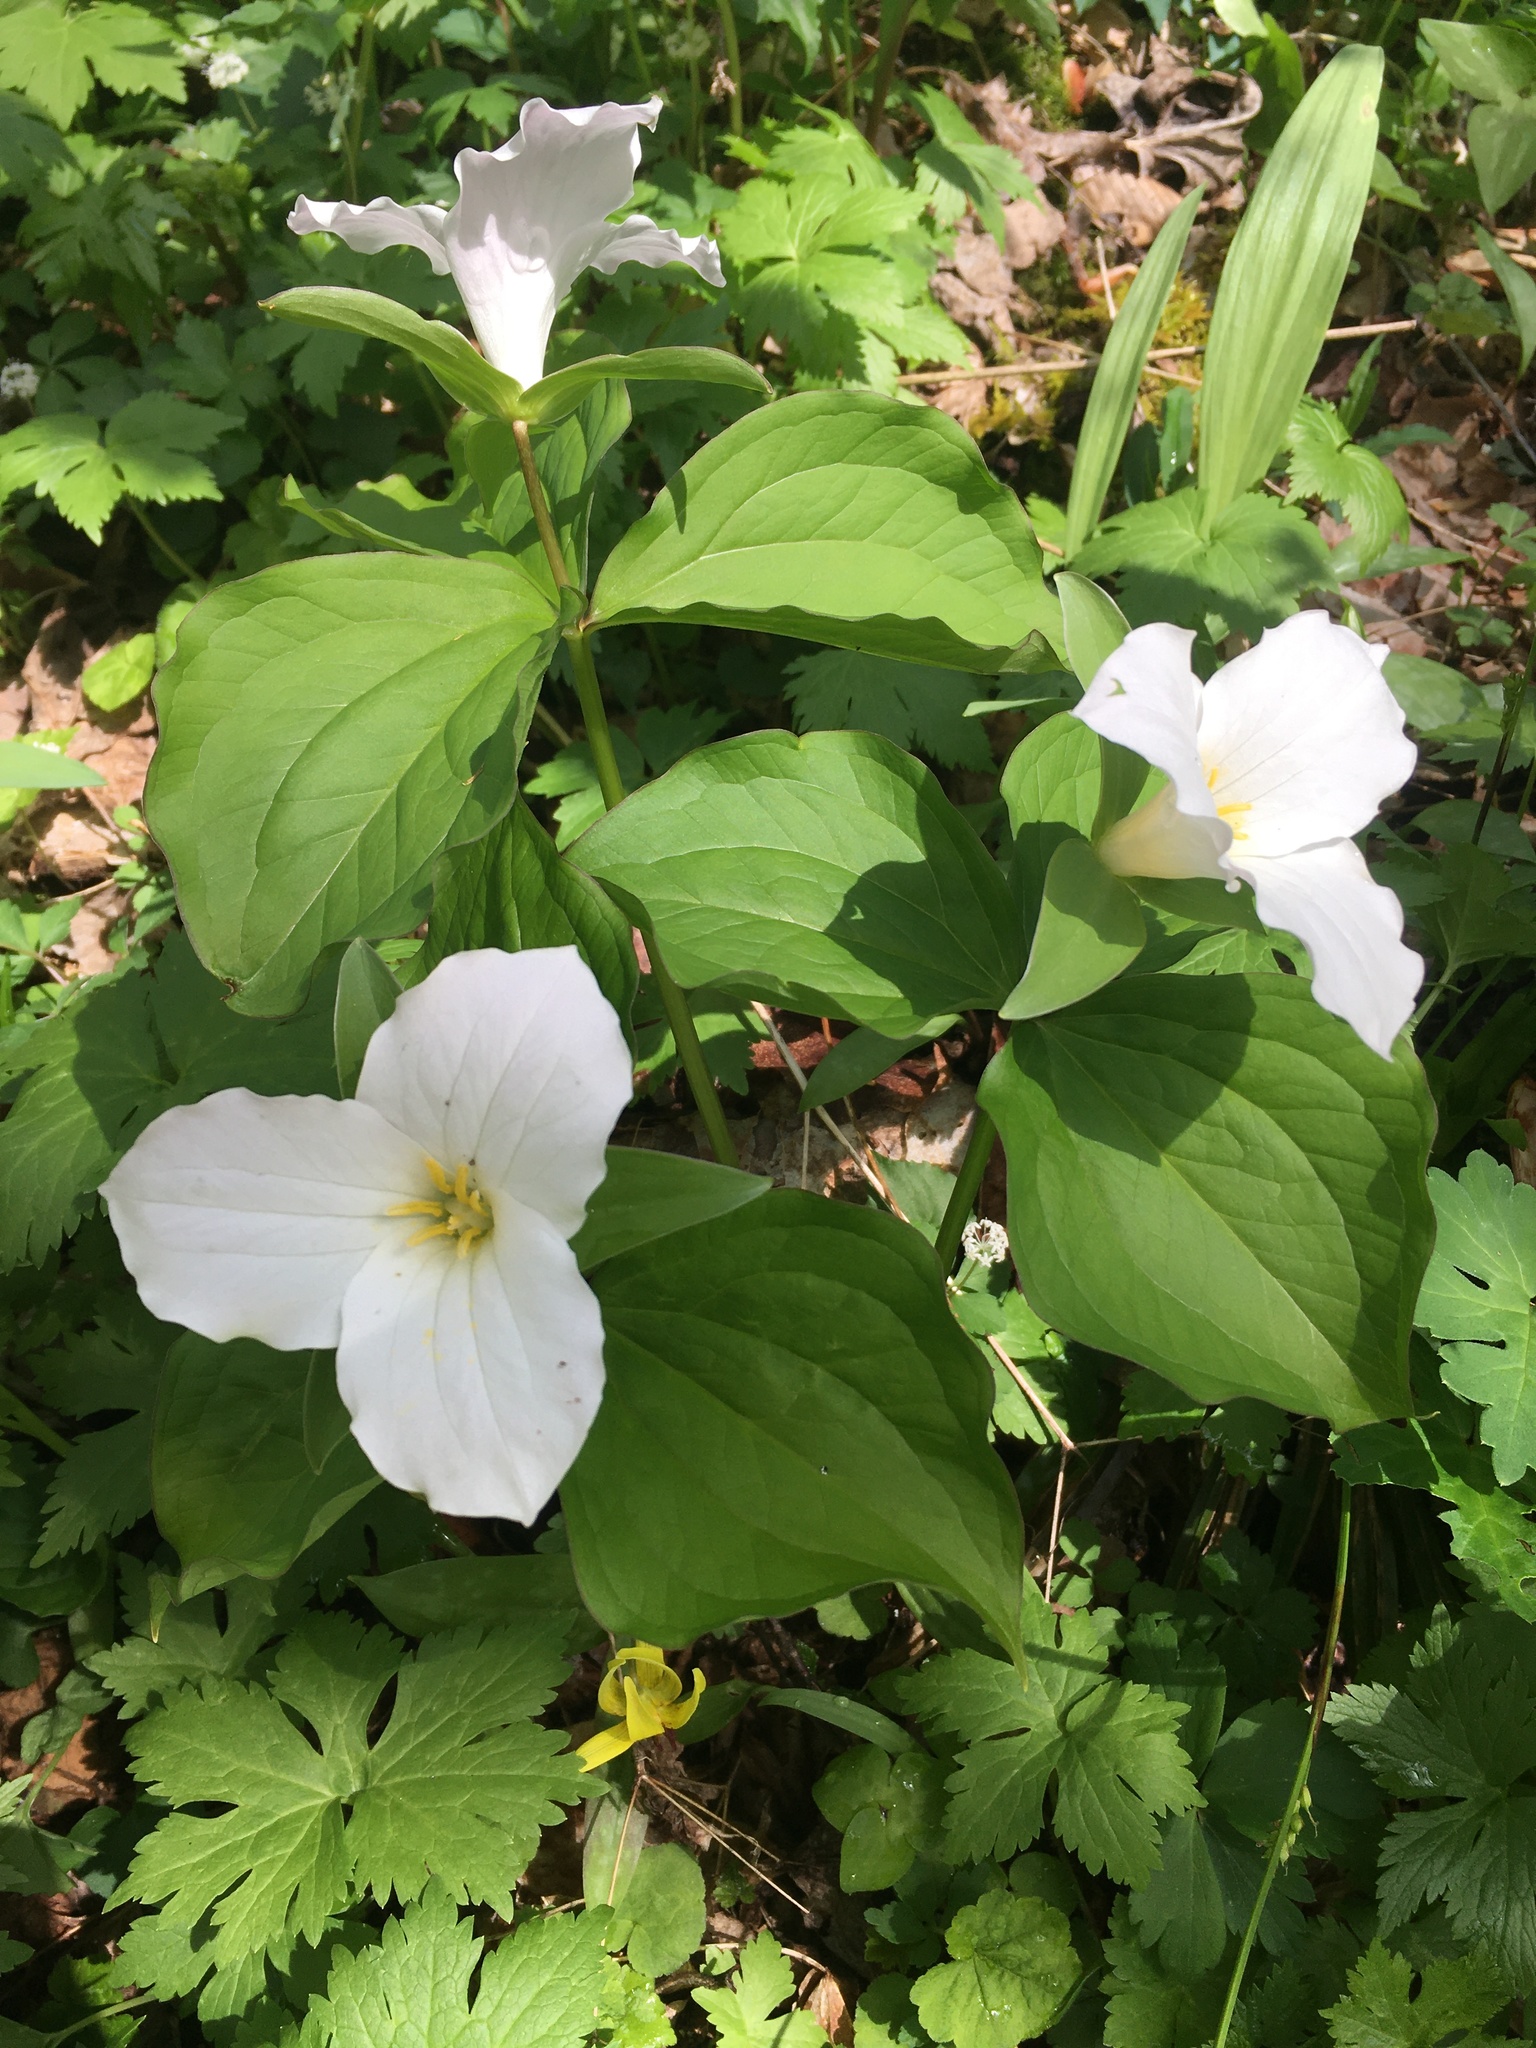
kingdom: Plantae
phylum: Tracheophyta
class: Liliopsida
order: Liliales
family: Melanthiaceae
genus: Trillium
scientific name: Trillium grandiflorum
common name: Great white trillium
